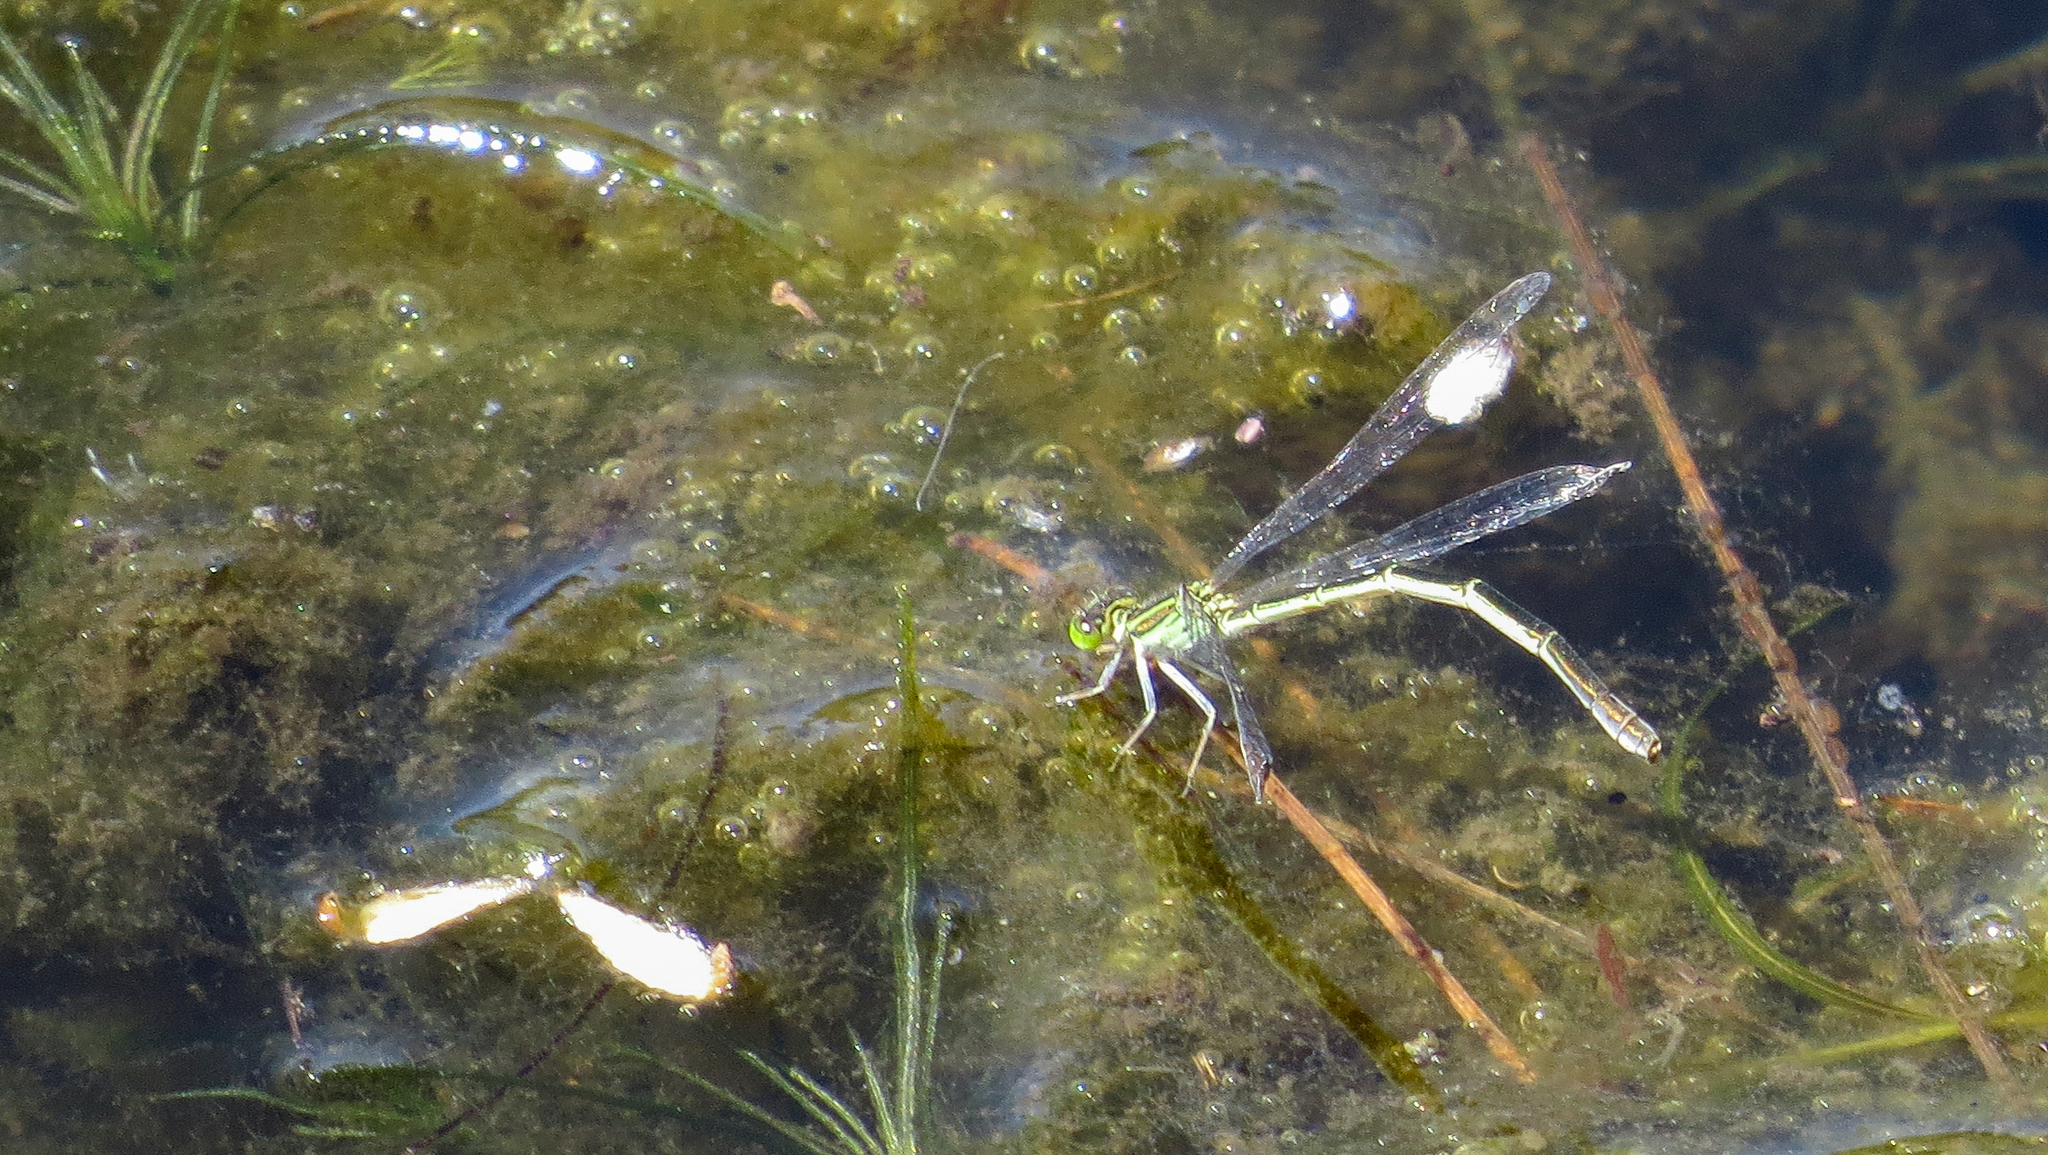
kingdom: Animalia
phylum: Arthropoda
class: Insecta
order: Odonata
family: Coenagrionidae
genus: Ischnura
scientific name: Ischnura aurora
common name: Gossamer damselfly
